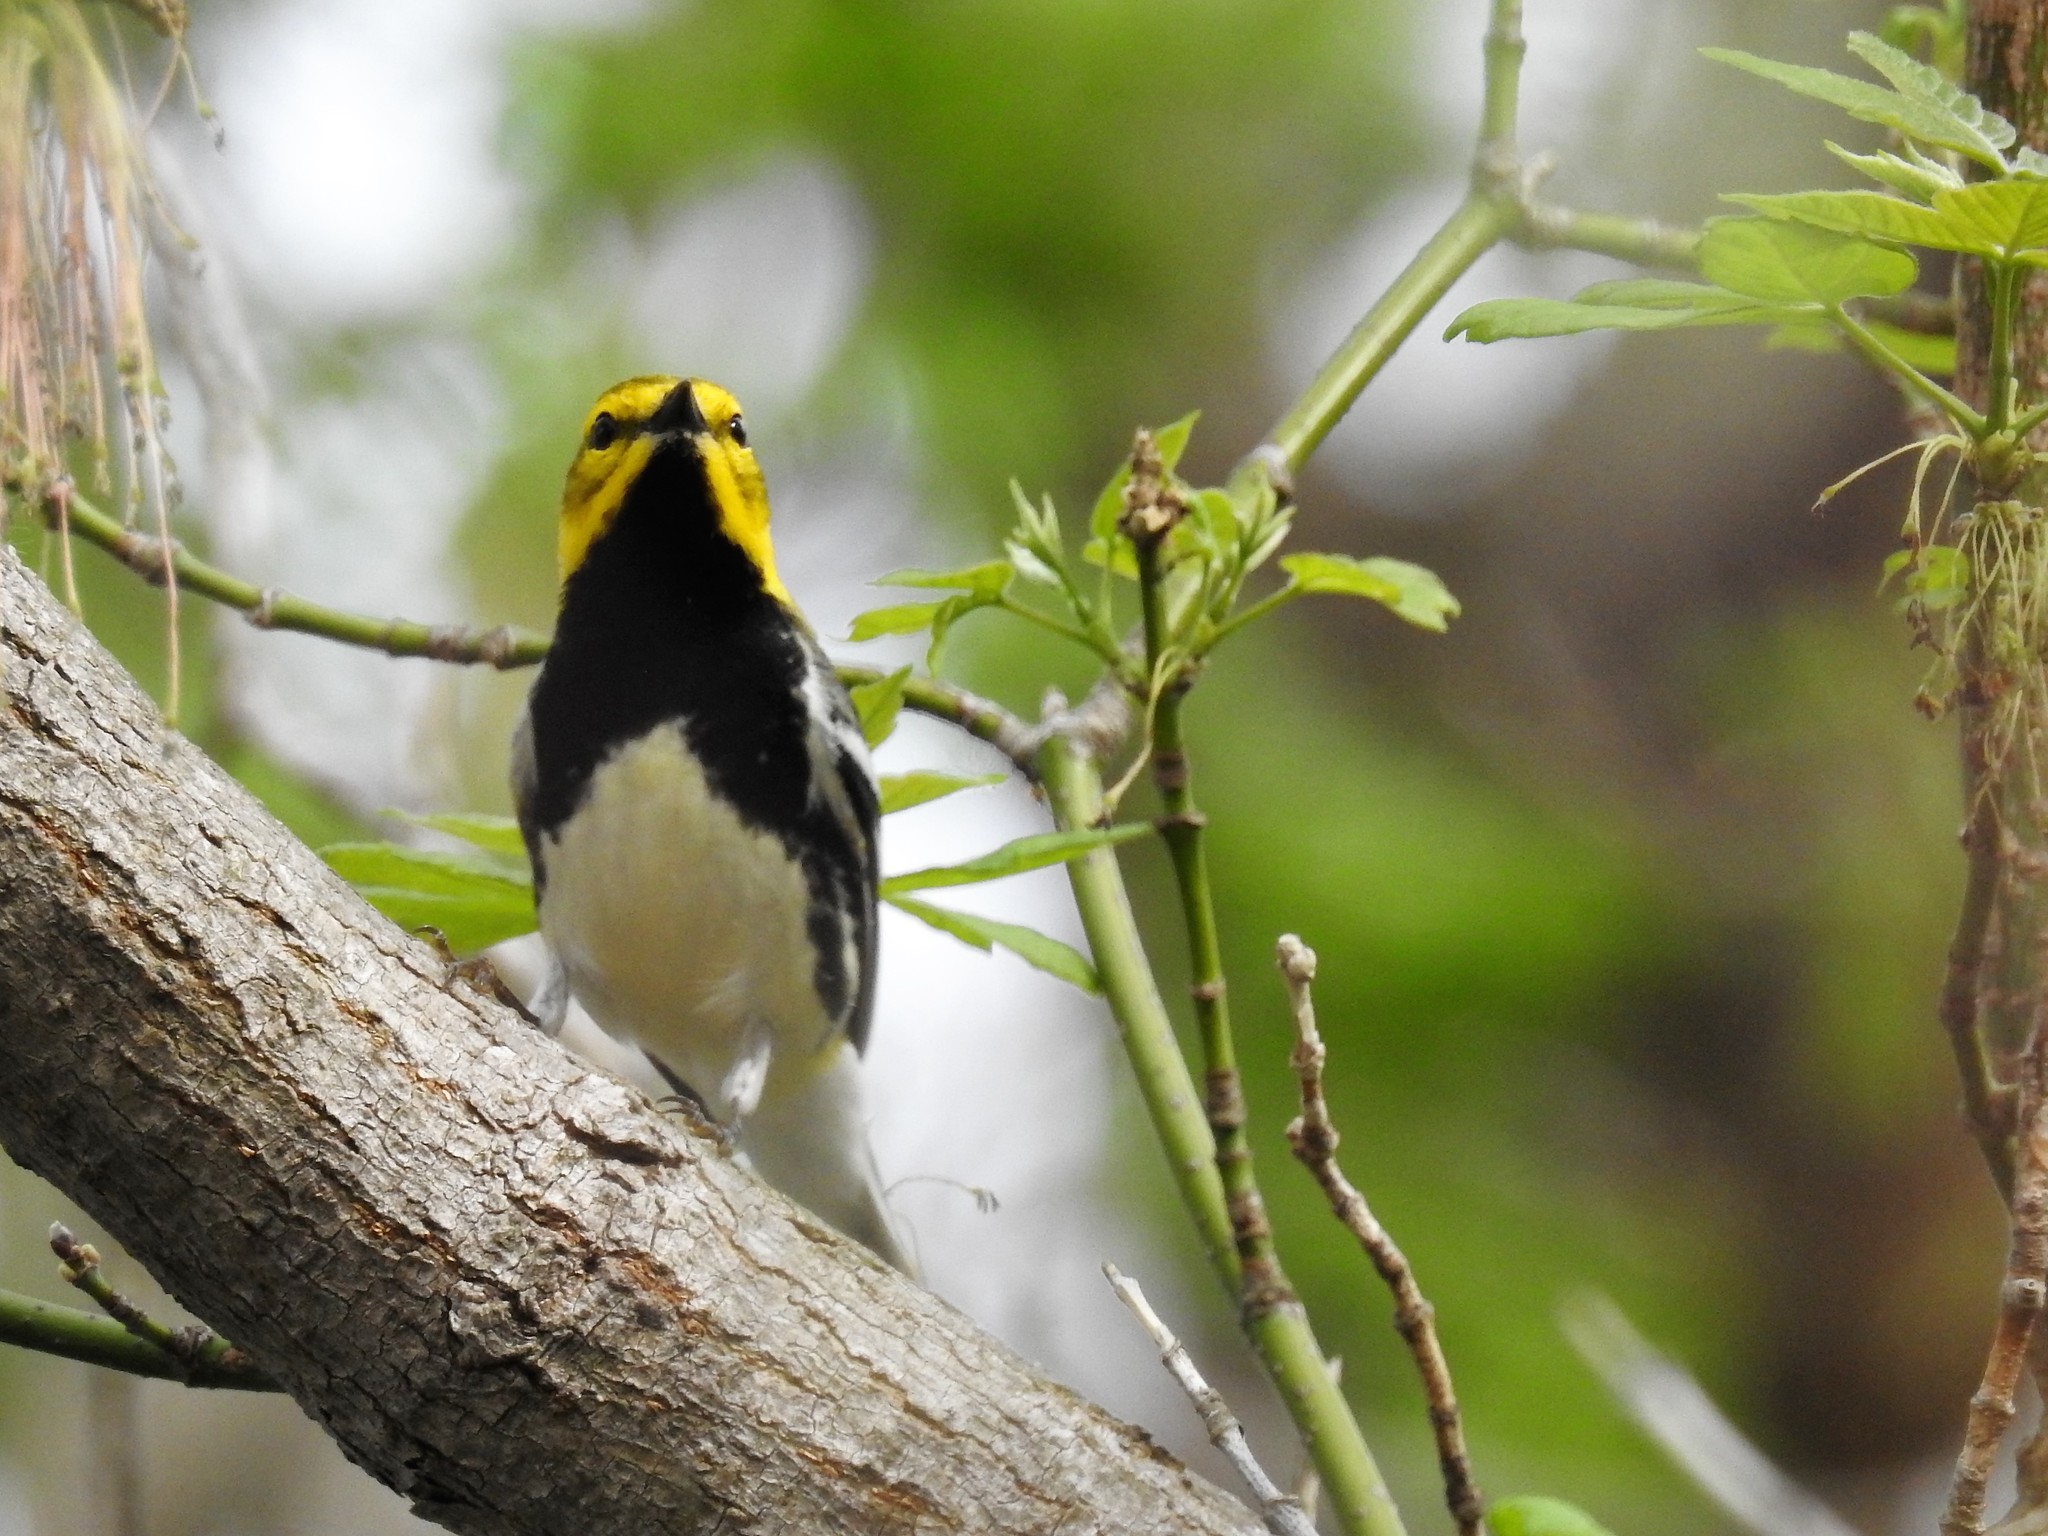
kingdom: Animalia
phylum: Chordata
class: Aves
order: Passeriformes
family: Parulidae
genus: Setophaga
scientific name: Setophaga virens
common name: Black-throated green warbler
